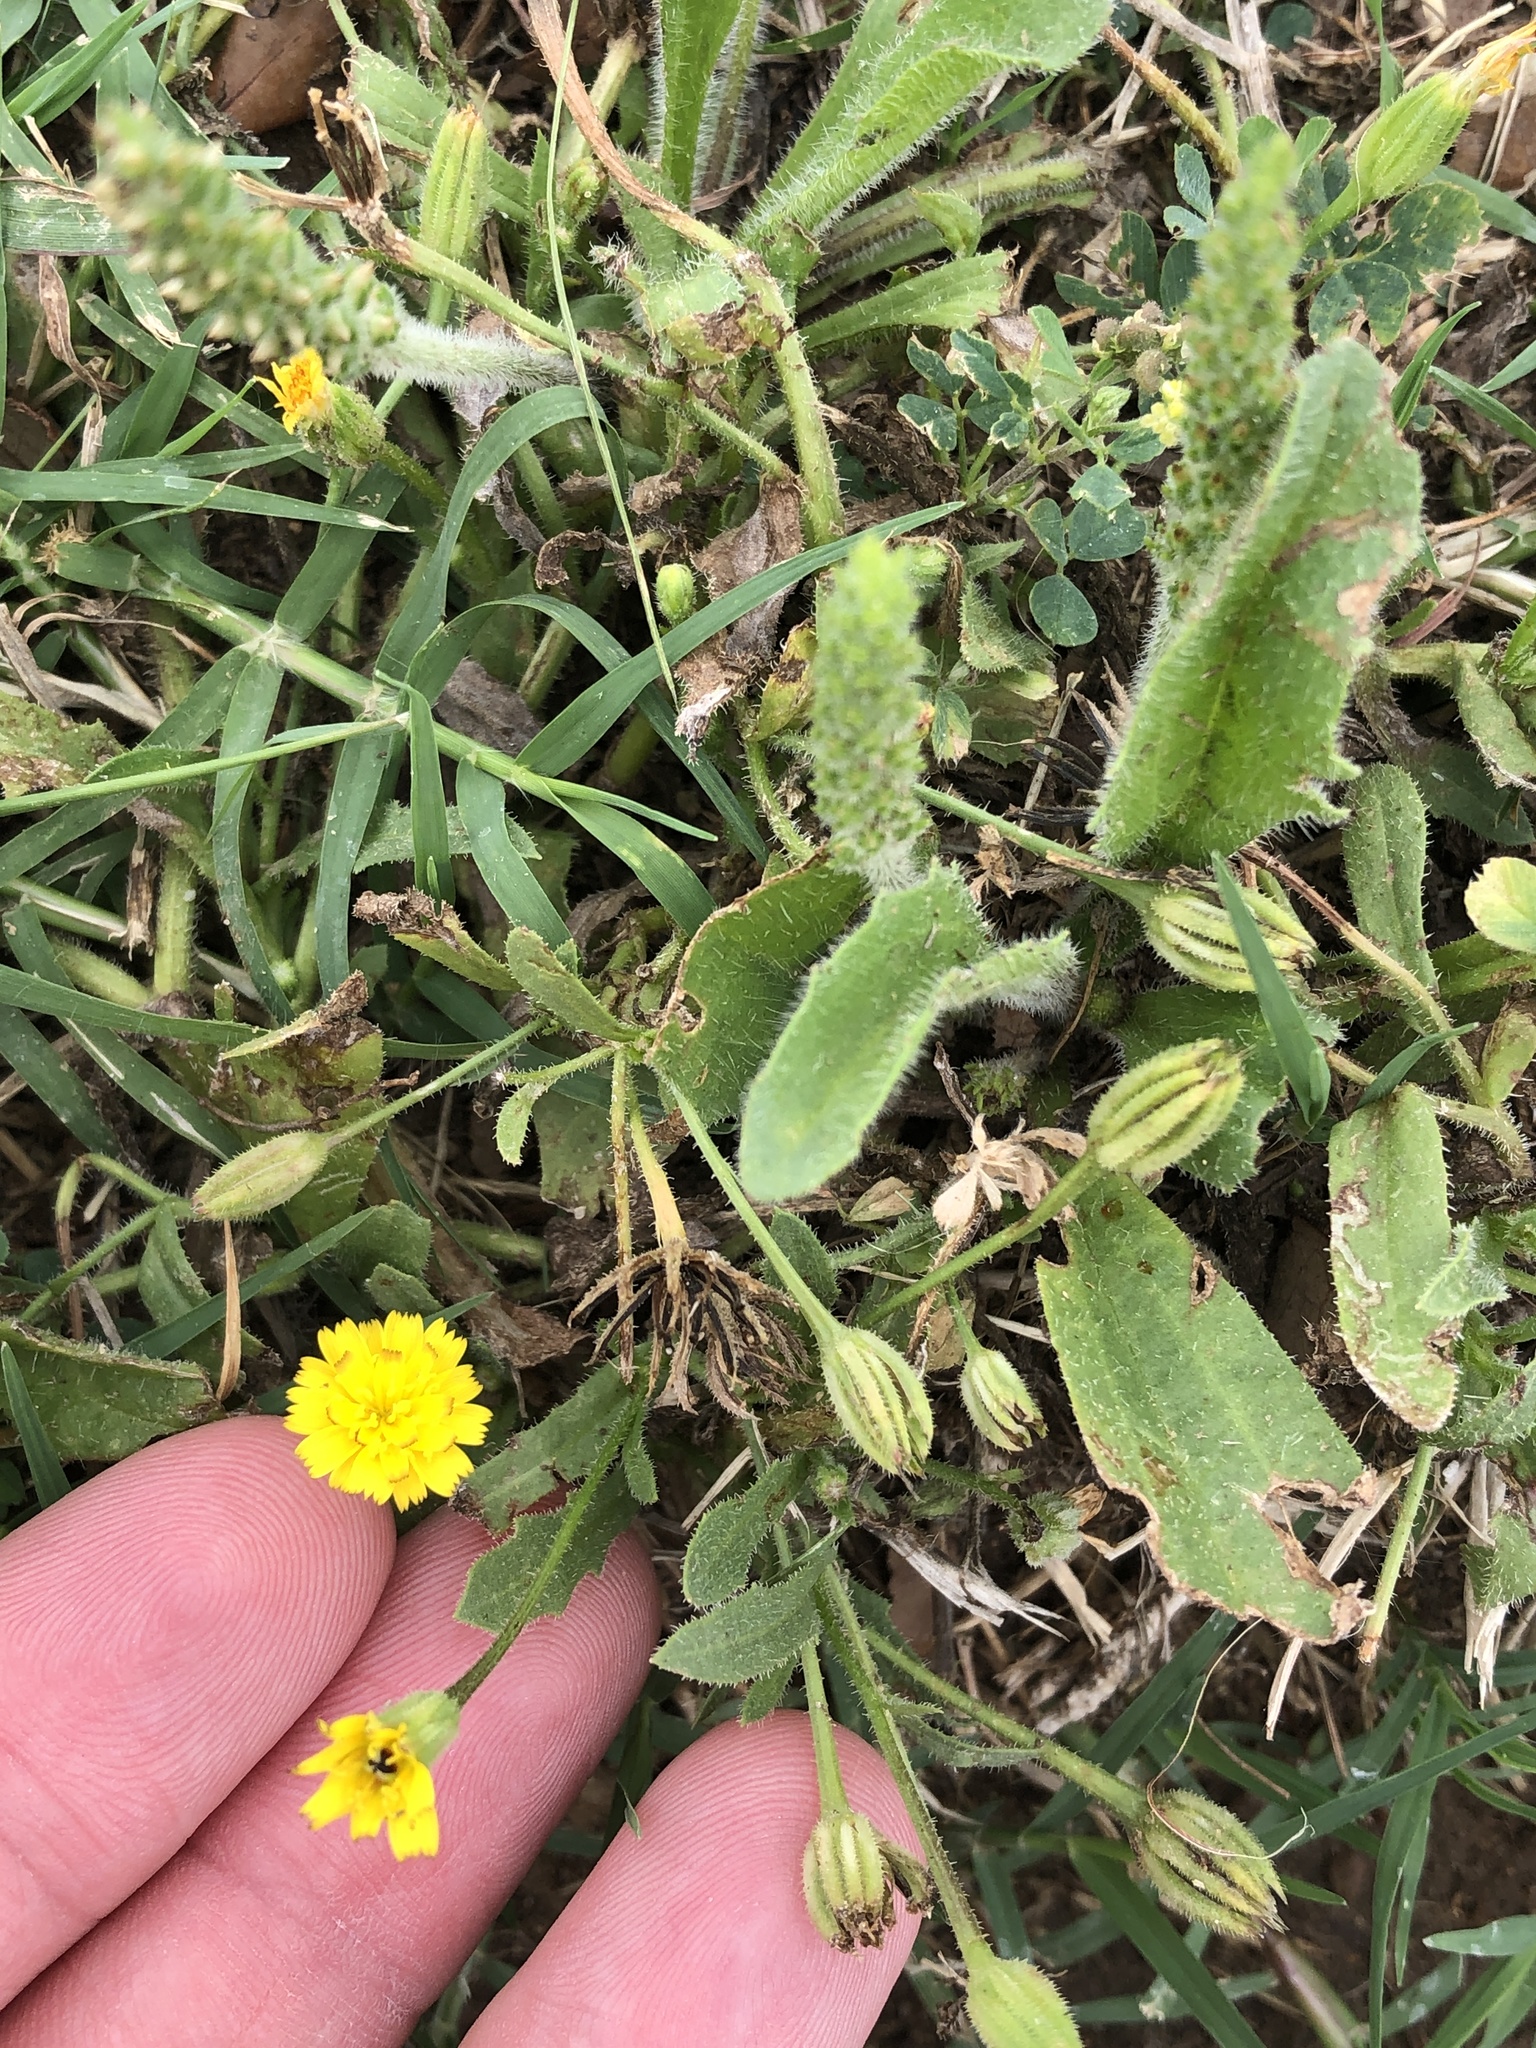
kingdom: Plantae
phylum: Tracheophyta
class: Magnoliopsida
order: Asterales
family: Asteraceae
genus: Hedypnois
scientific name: Hedypnois rhagadioloides
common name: Cretan weed
